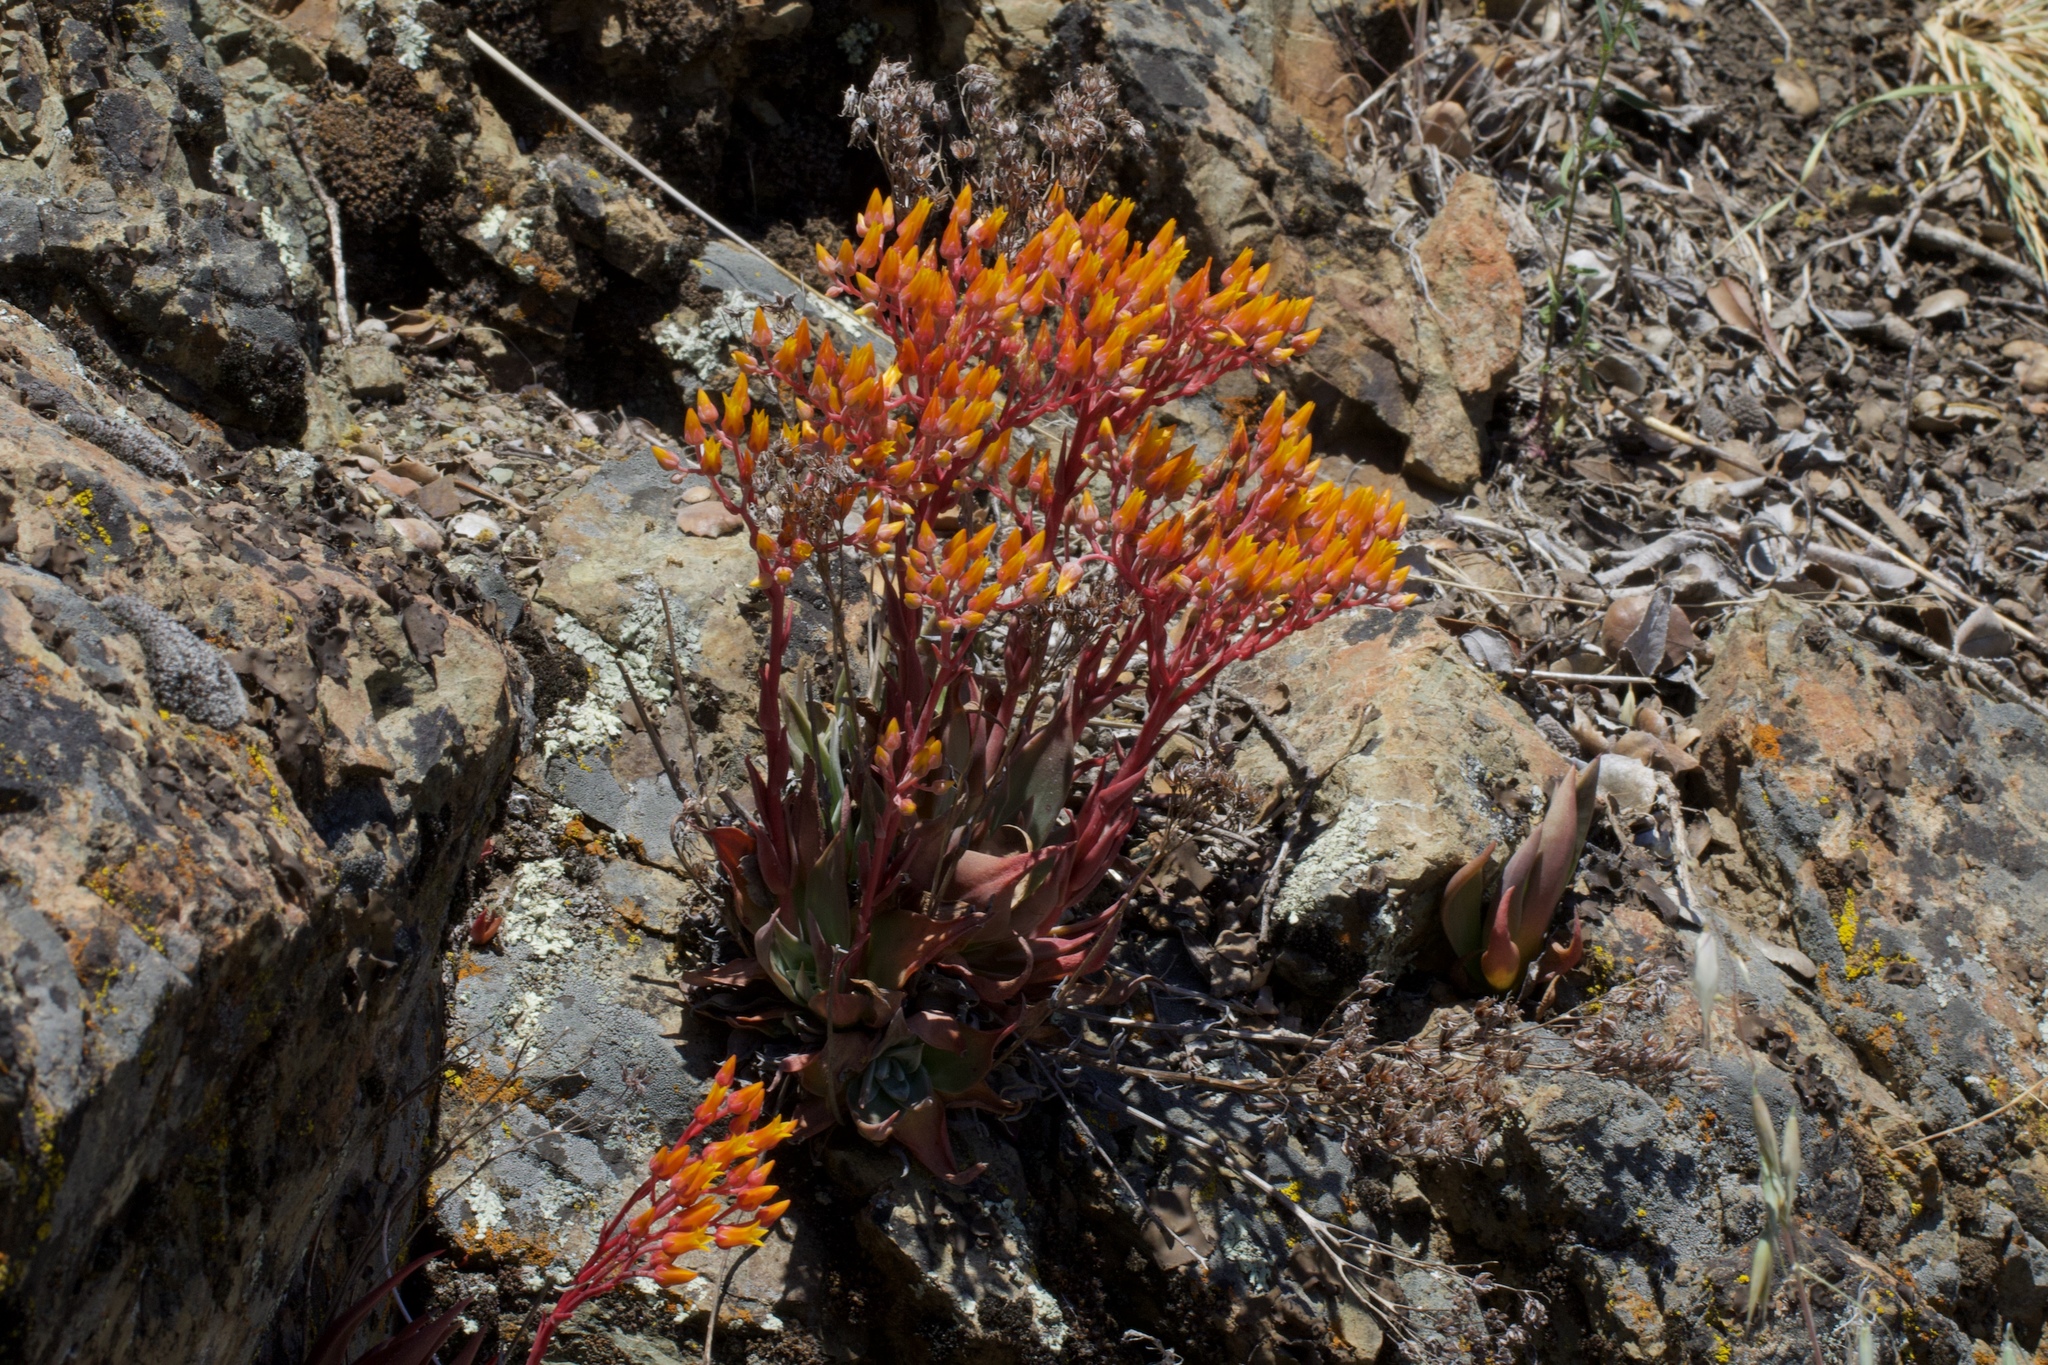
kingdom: Plantae
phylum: Tracheophyta
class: Magnoliopsida
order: Saxifragales
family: Crassulaceae
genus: Dudleya
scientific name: Dudleya cymosa
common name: Canyon dudleya
